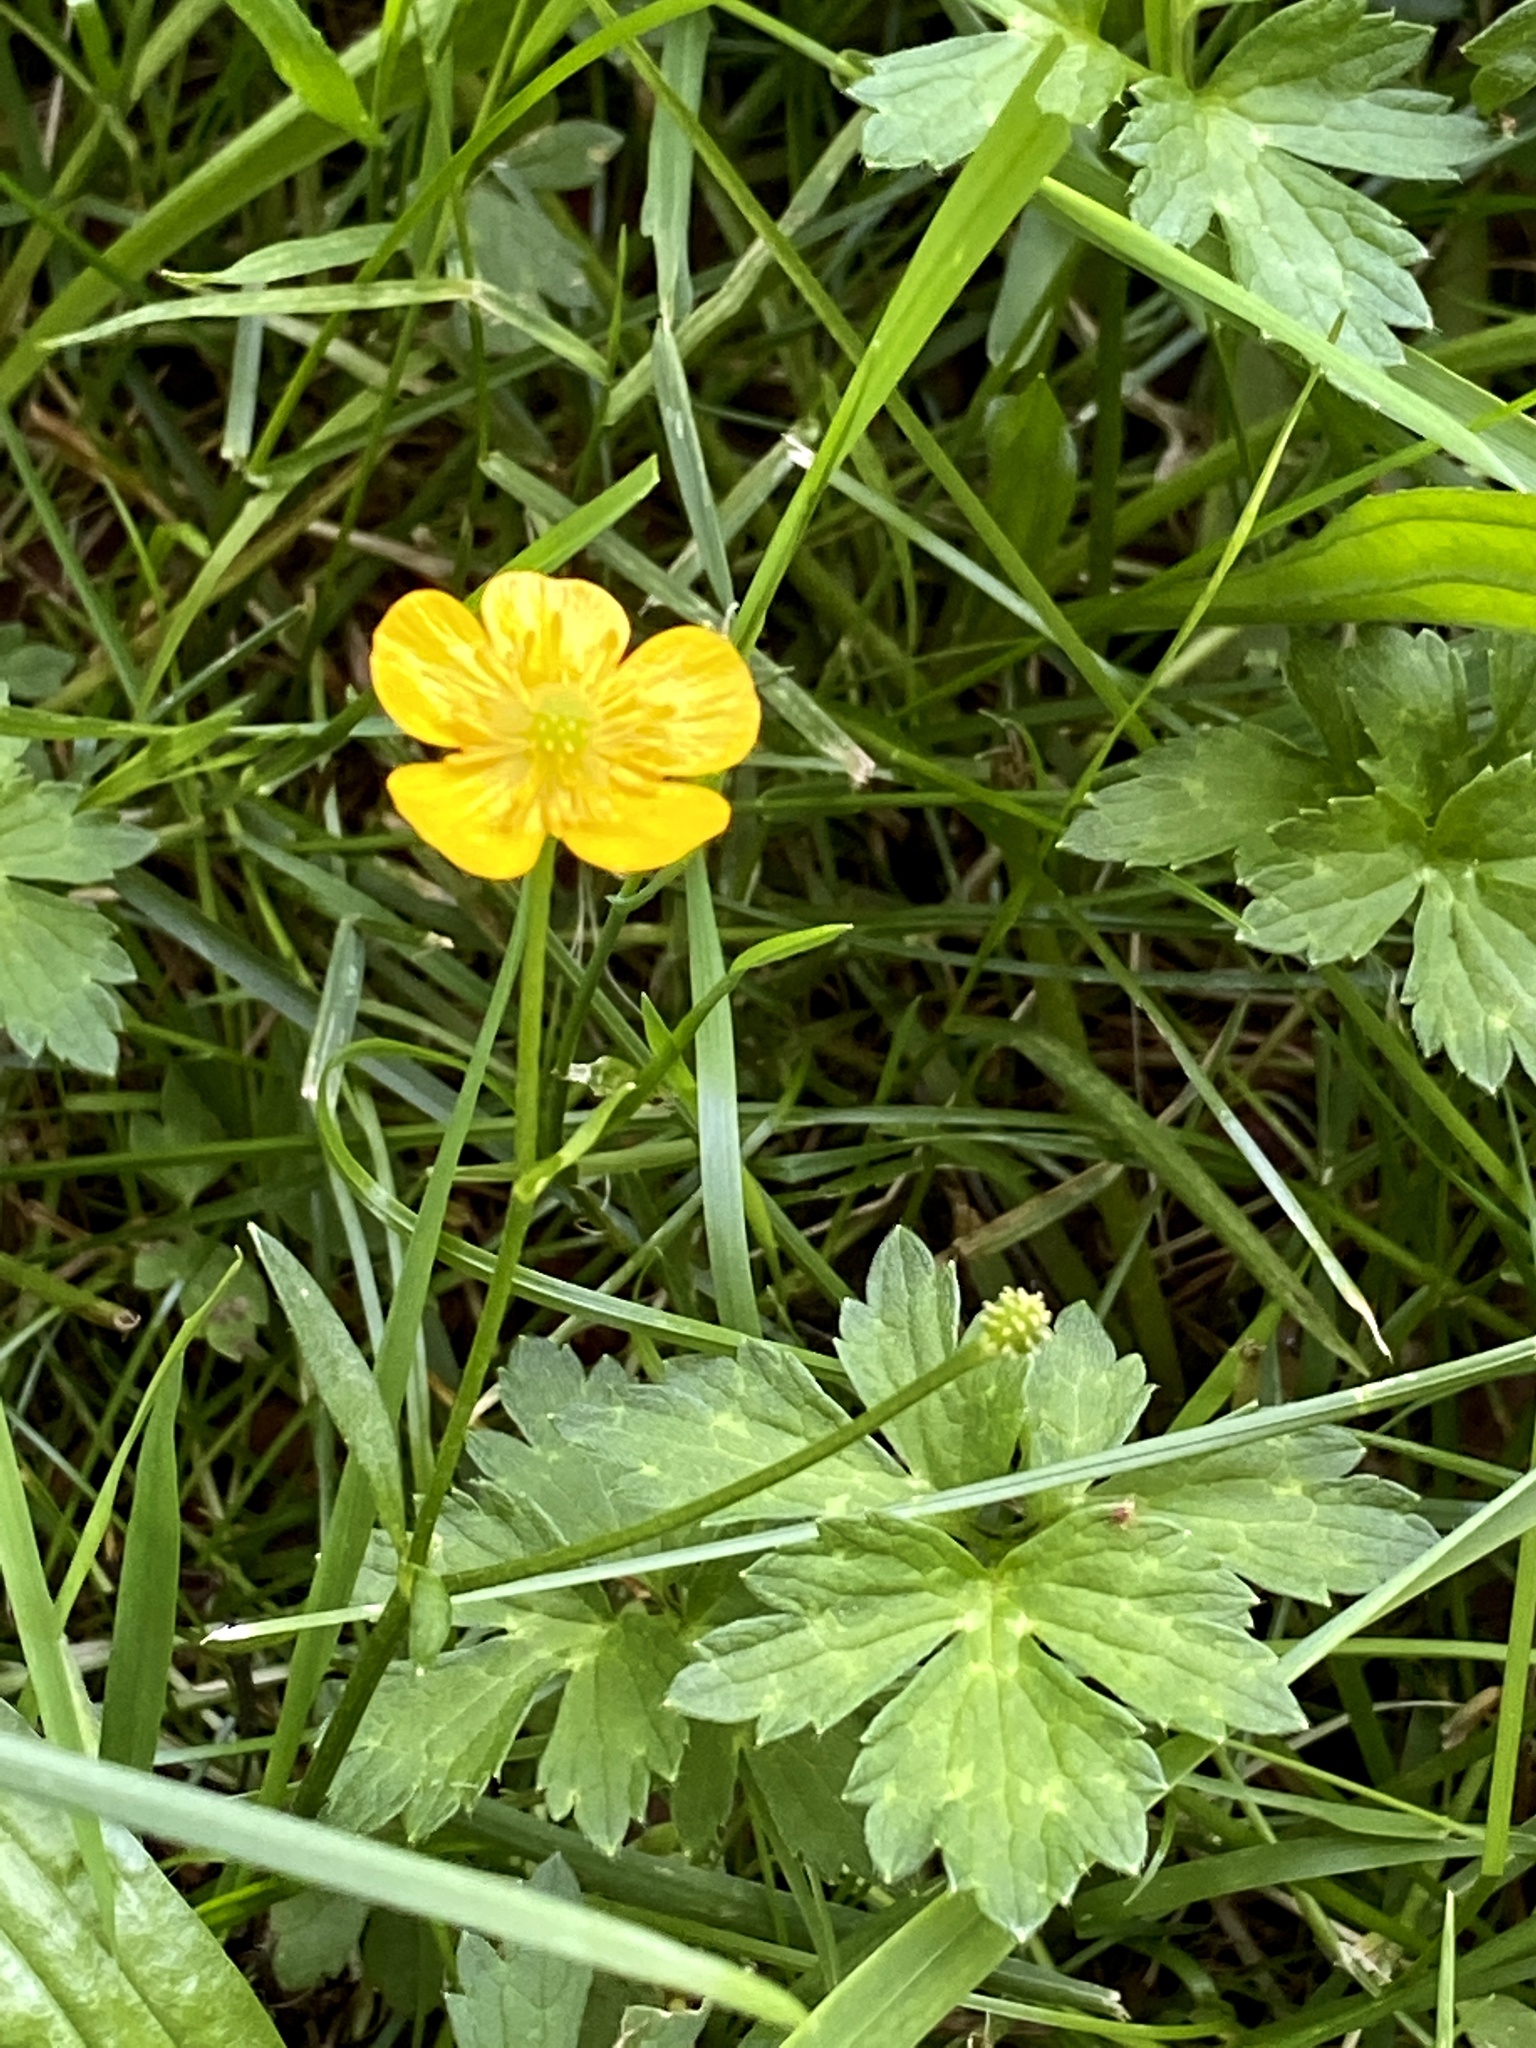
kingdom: Plantae
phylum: Tracheophyta
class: Magnoliopsida
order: Ranunculales
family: Ranunculaceae
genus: Ranunculus
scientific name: Ranunculus repens
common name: Creeping buttercup
